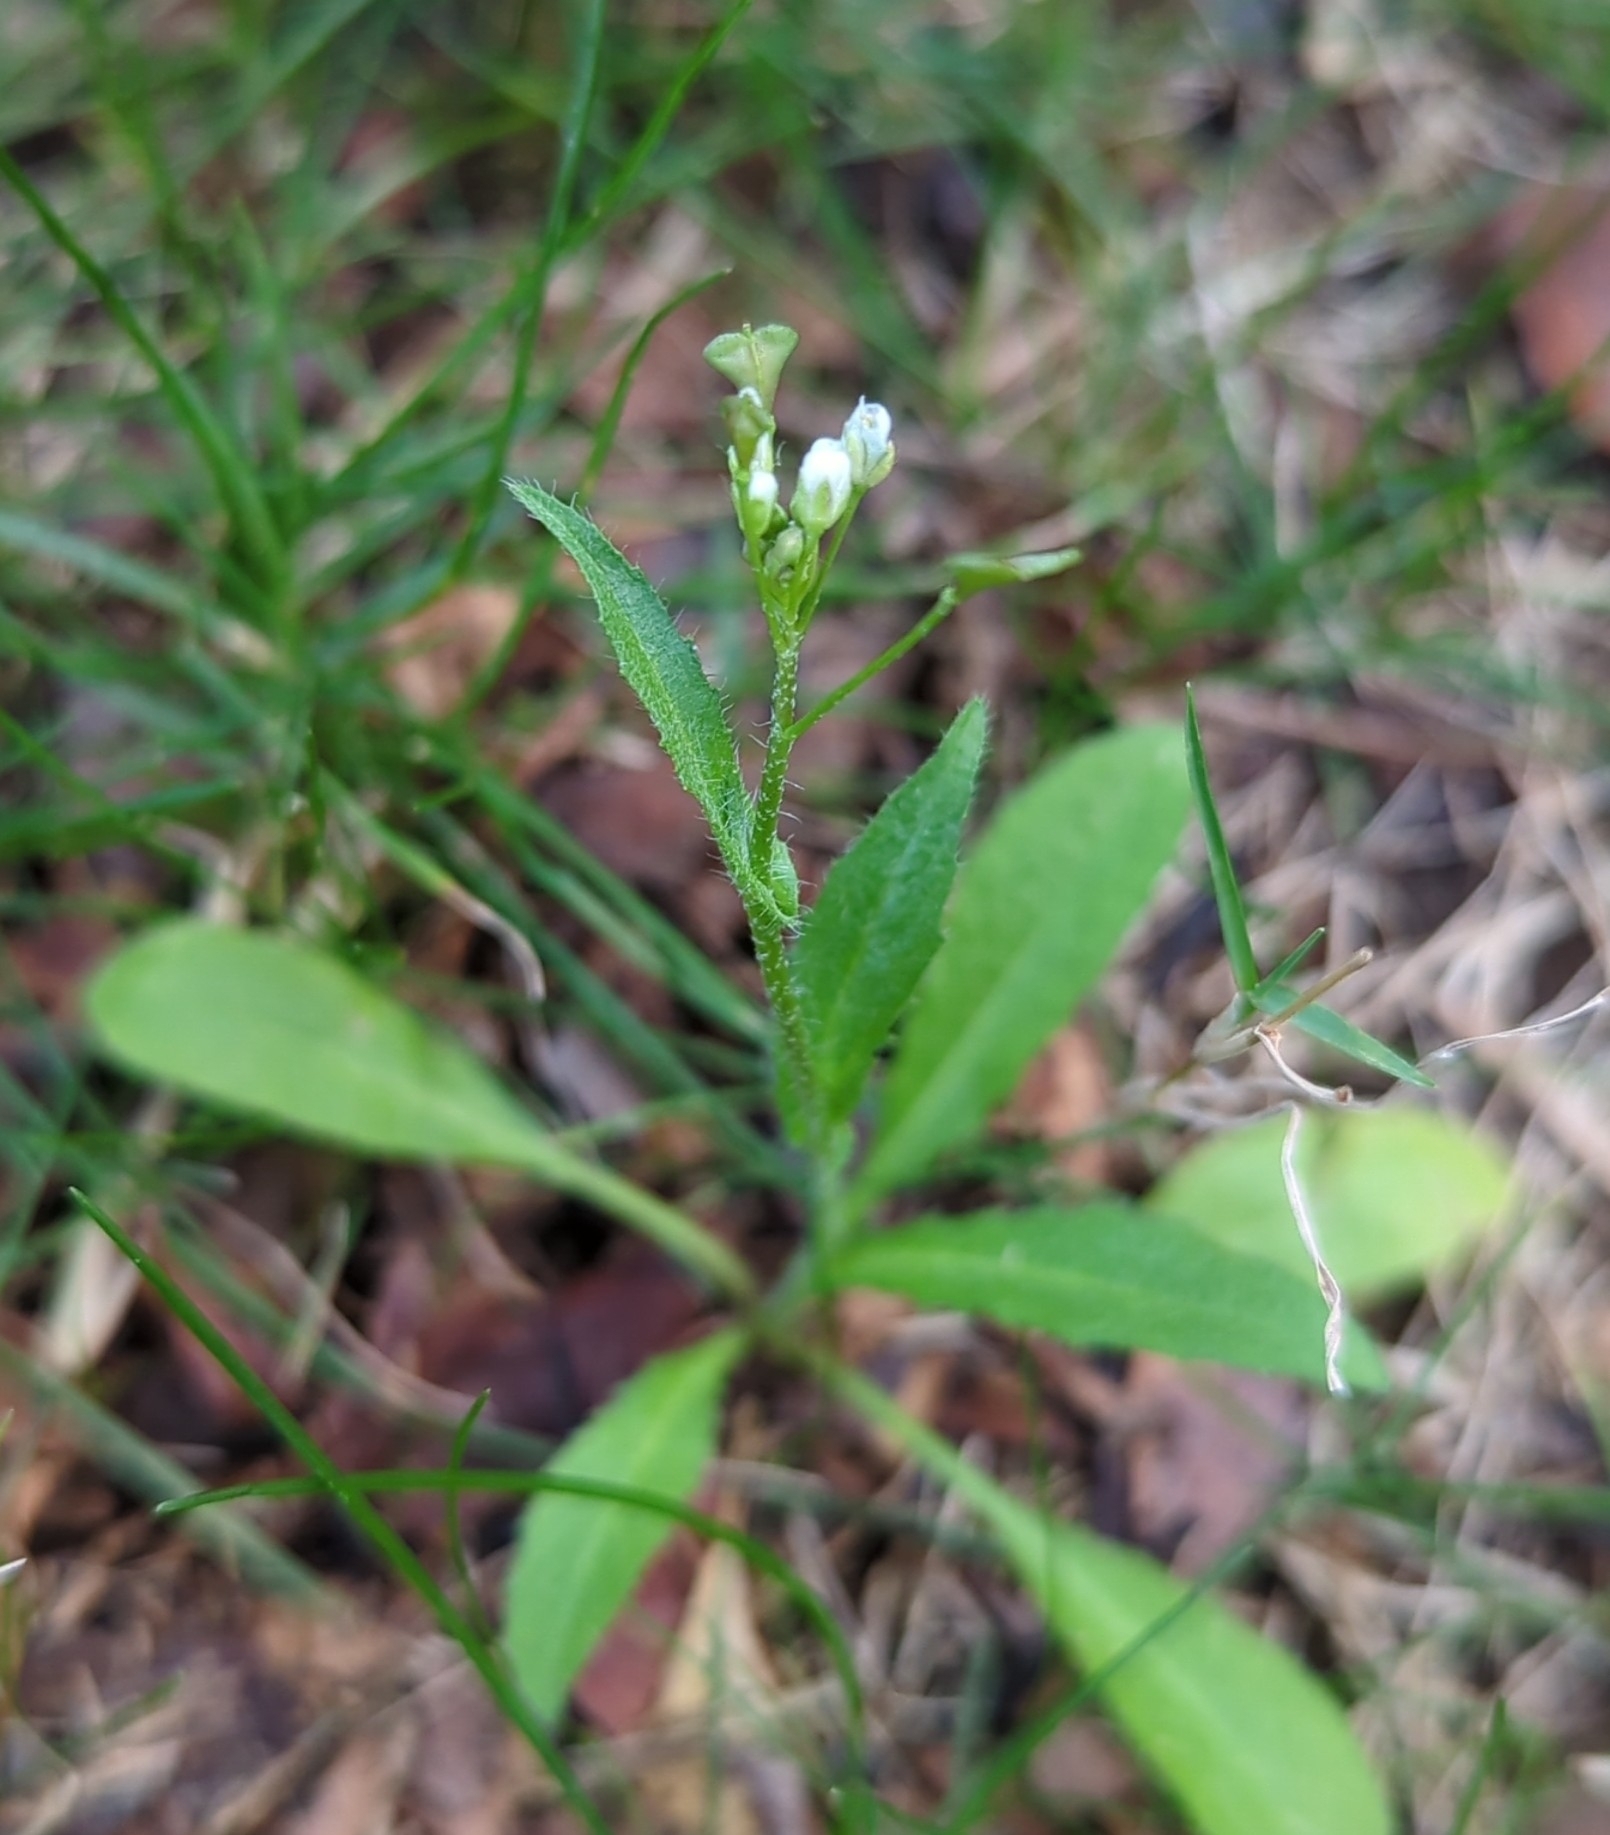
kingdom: Plantae
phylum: Tracheophyta
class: Magnoliopsida
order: Brassicales
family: Brassicaceae
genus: Capsella
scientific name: Capsella bursa-pastoris
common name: Shepherd's purse
